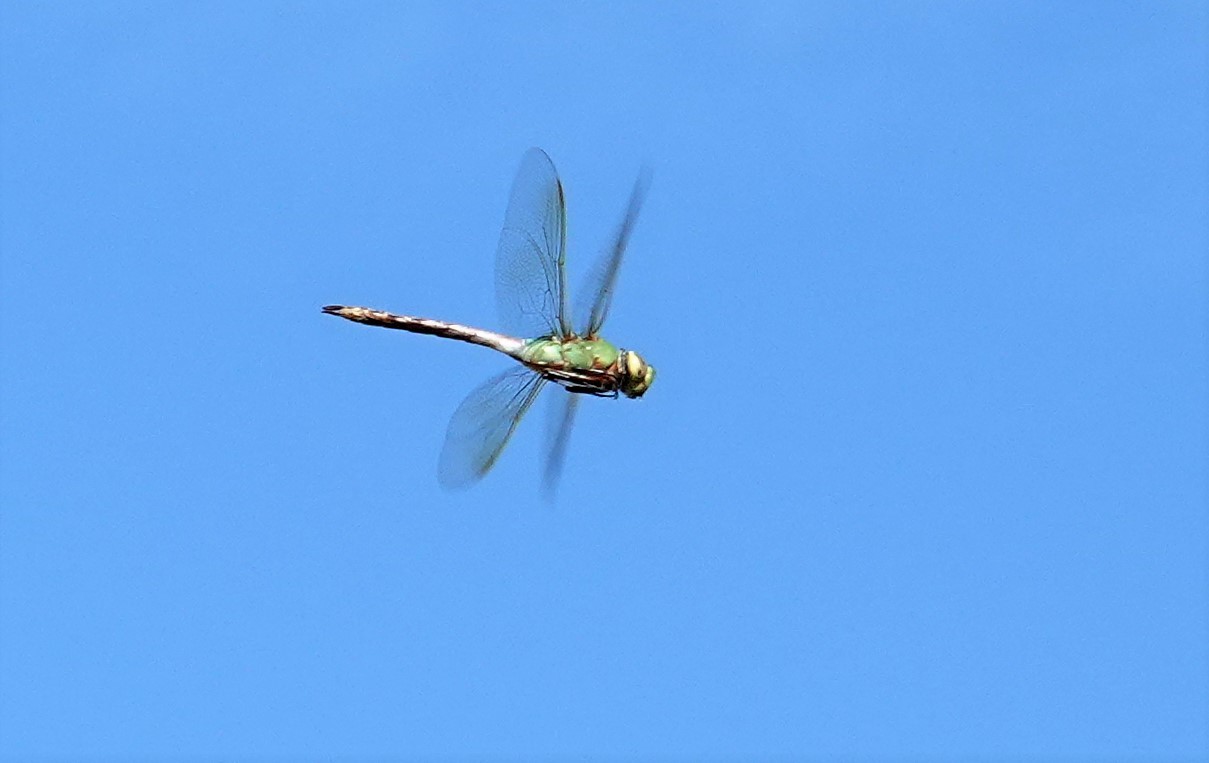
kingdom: Animalia
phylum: Arthropoda
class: Insecta
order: Odonata
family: Aeshnidae
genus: Anax
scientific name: Anax junius
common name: Common green darner
